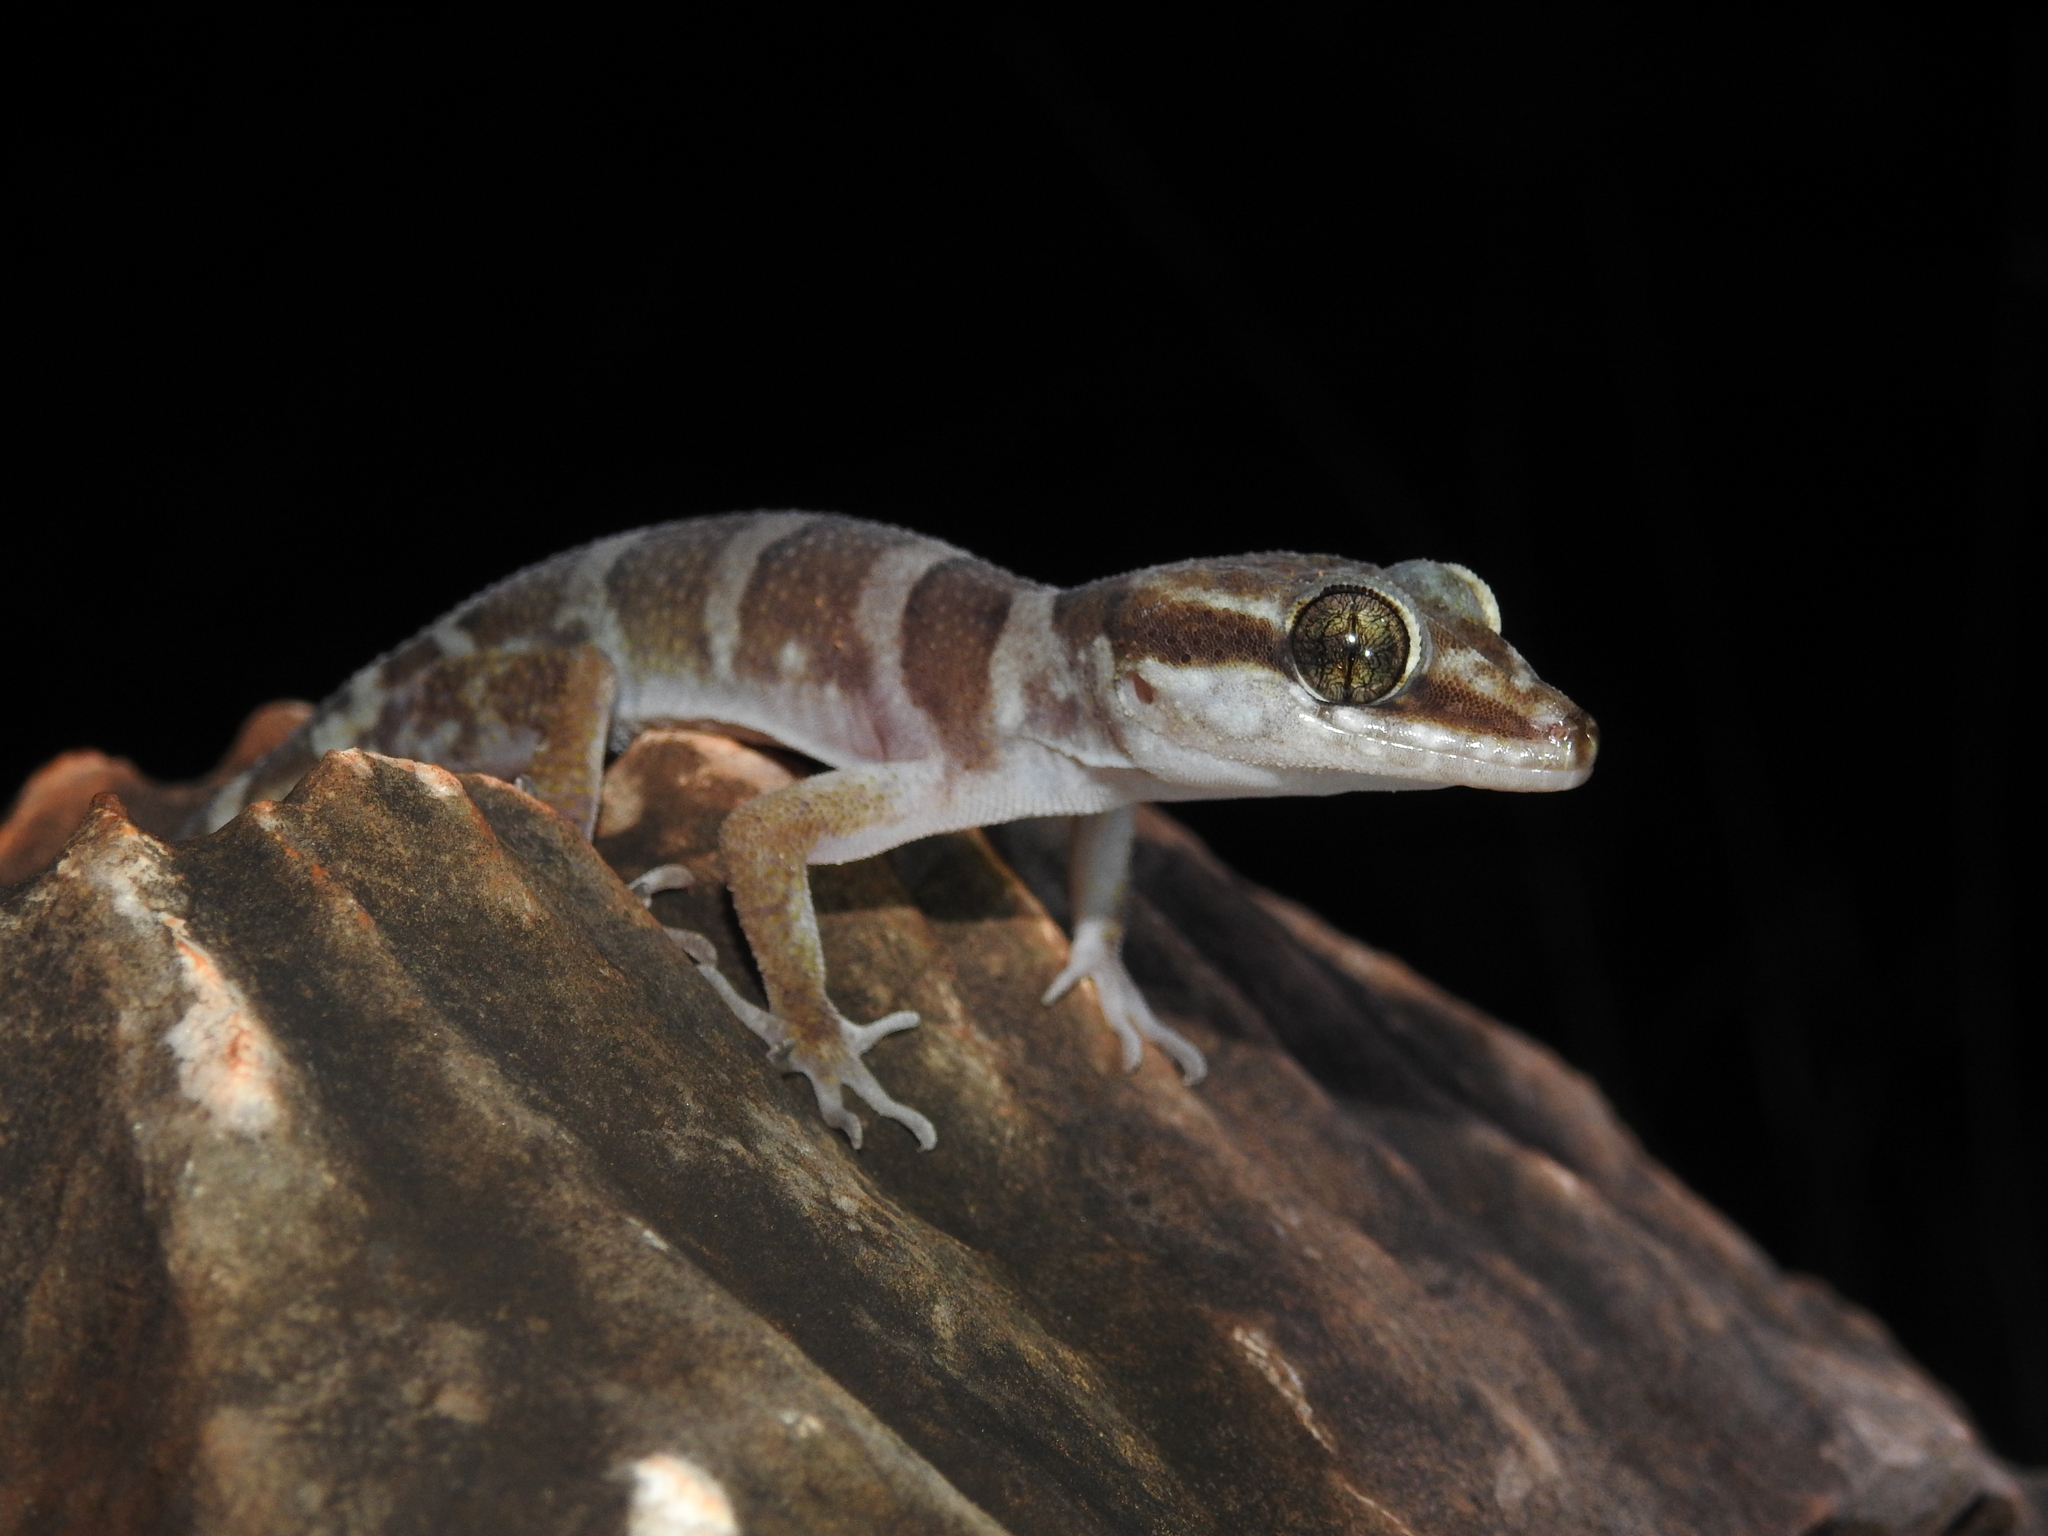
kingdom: Animalia
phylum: Chordata
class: Squamata
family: Gekkonidae
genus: Cyrtodactylus
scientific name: Cyrtodactylus mcdonaldi
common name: Mcdonald's ring-tailed gecko
